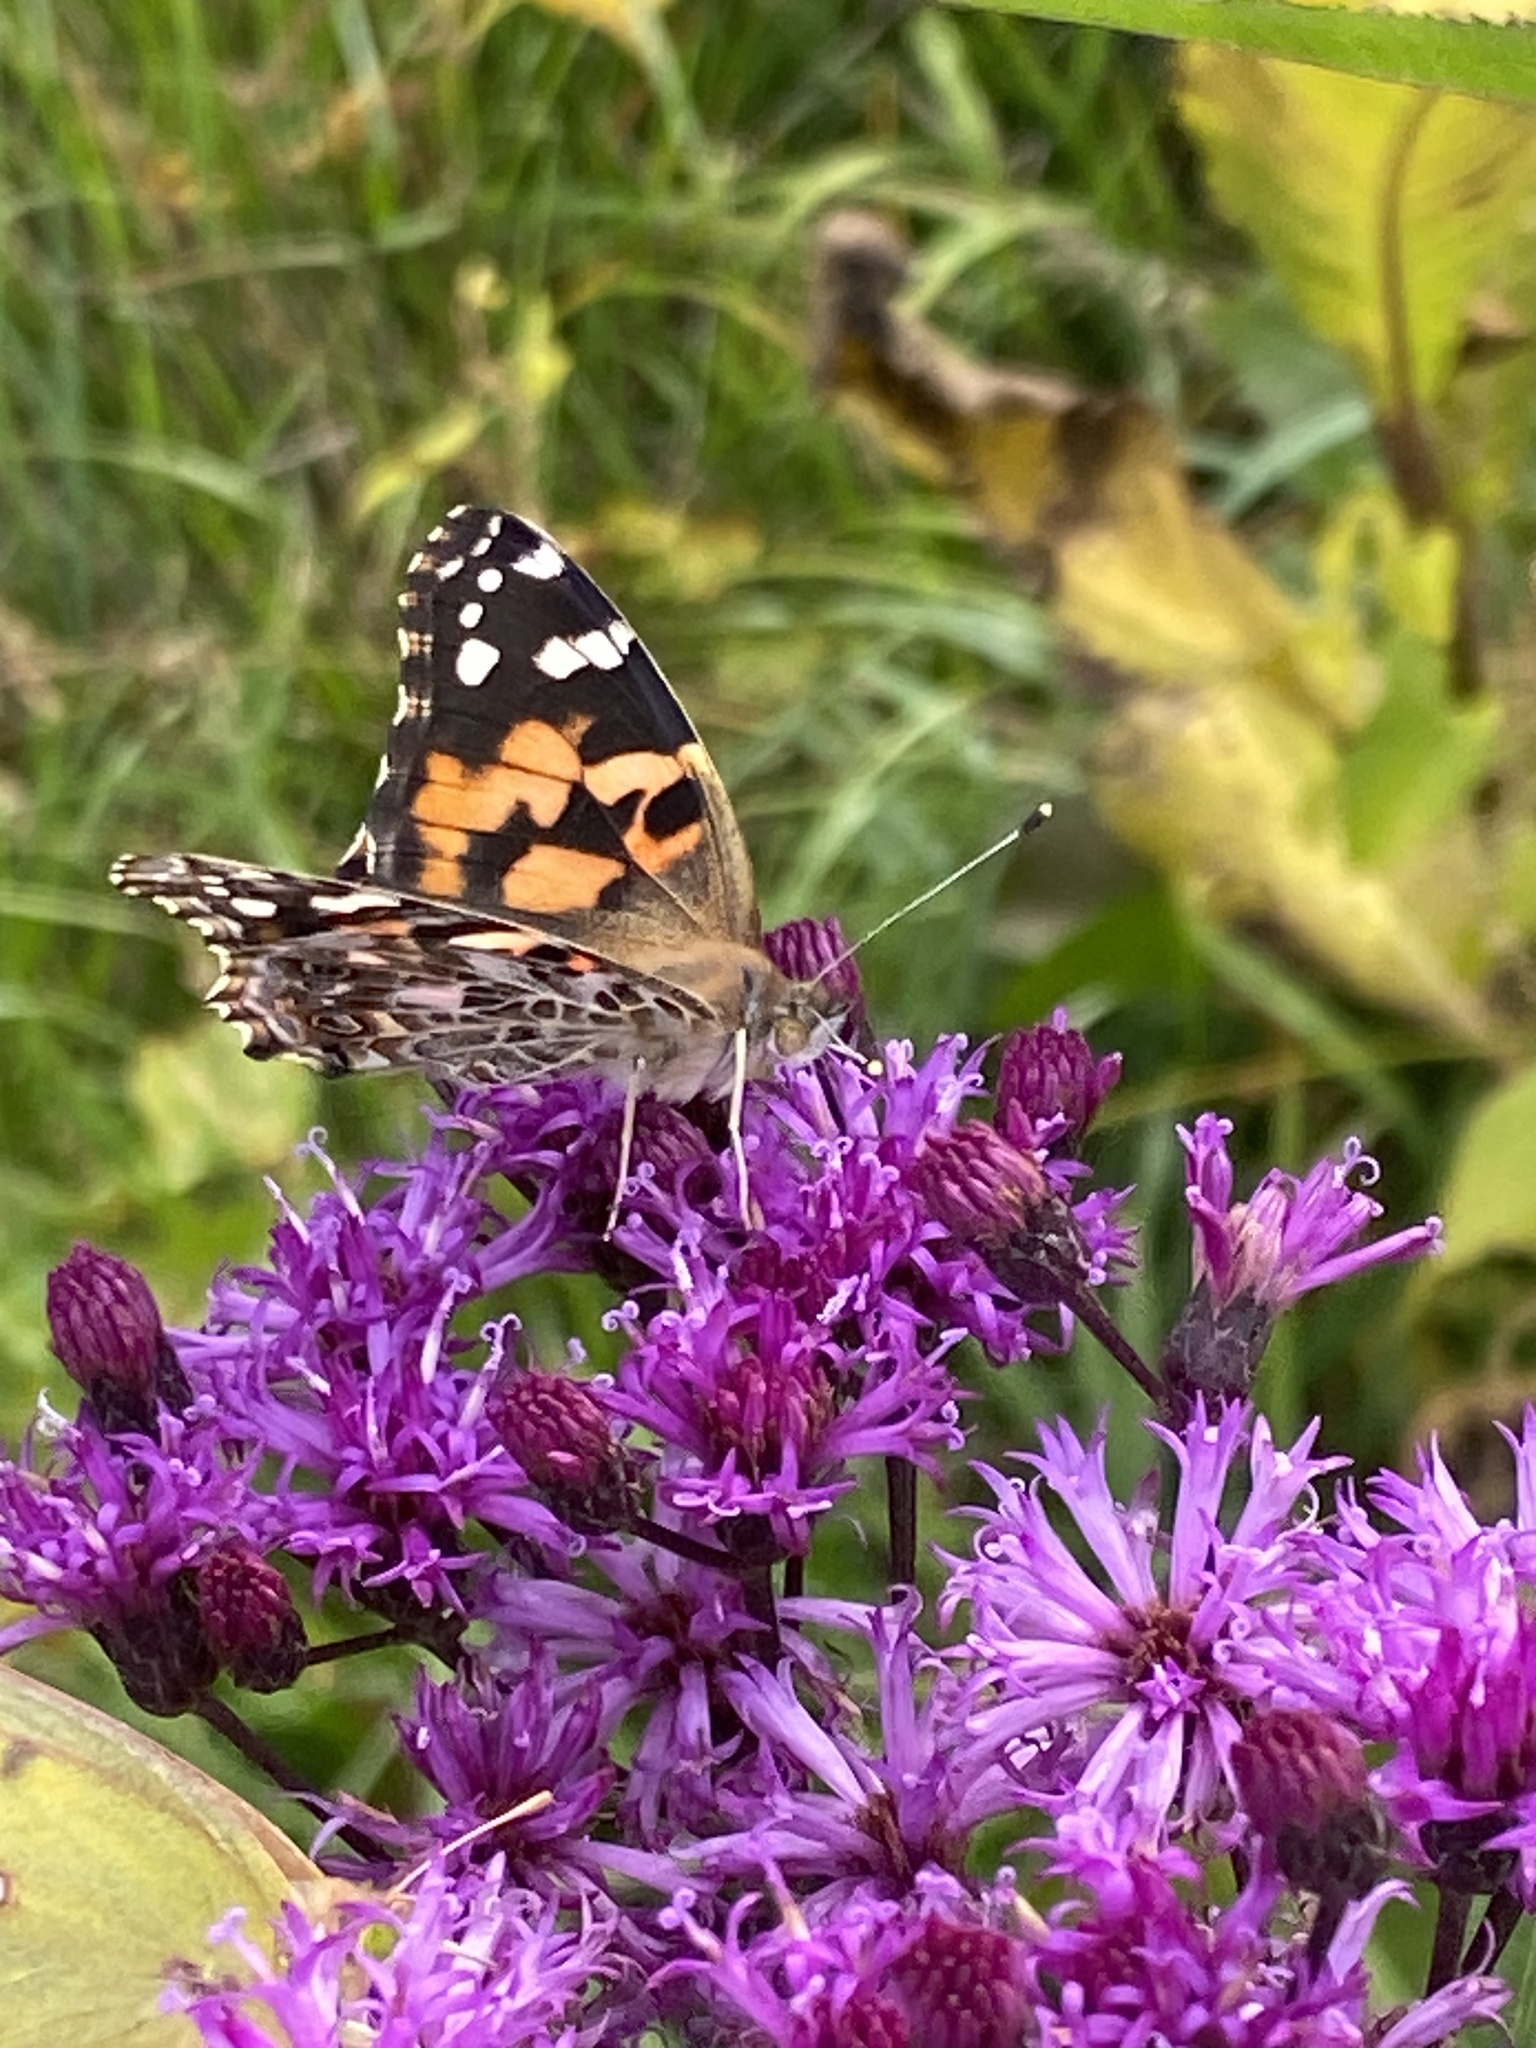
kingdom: Animalia
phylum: Arthropoda
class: Insecta
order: Lepidoptera
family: Nymphalidae
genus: Vanessa
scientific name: Vanessa cardui
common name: Painted lady
